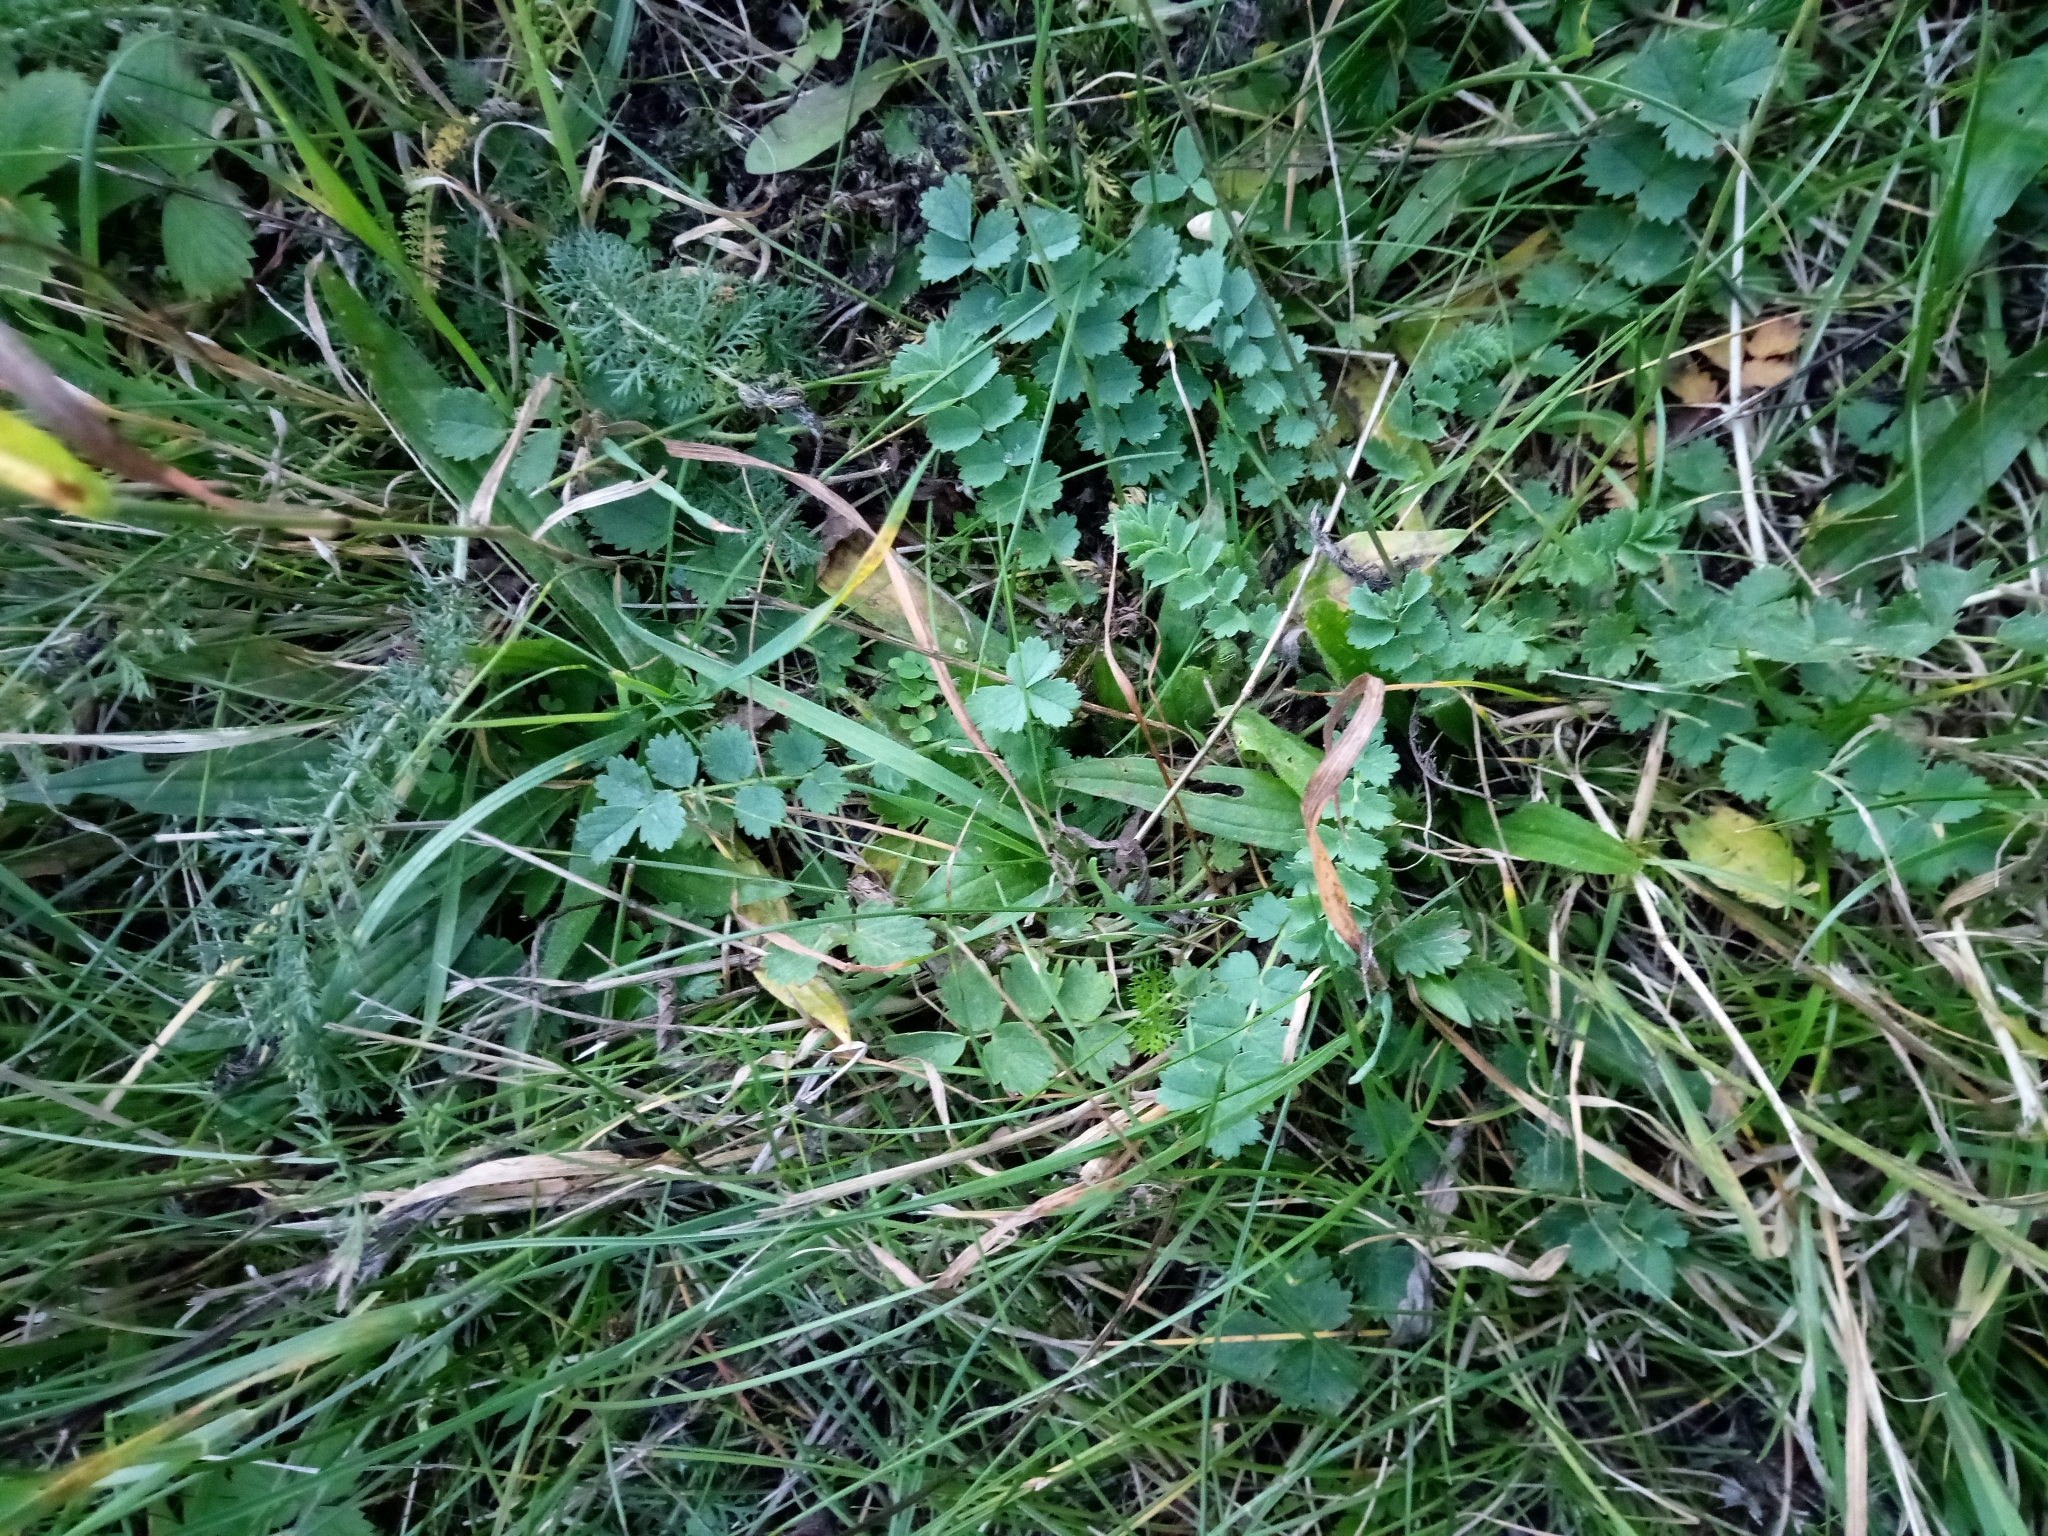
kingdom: Plantae
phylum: Tracheophyta
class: Magnoliopsida
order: Rosales
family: Rosaceae
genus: Poterium
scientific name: Poterium sanguisorba
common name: Salad burnet
